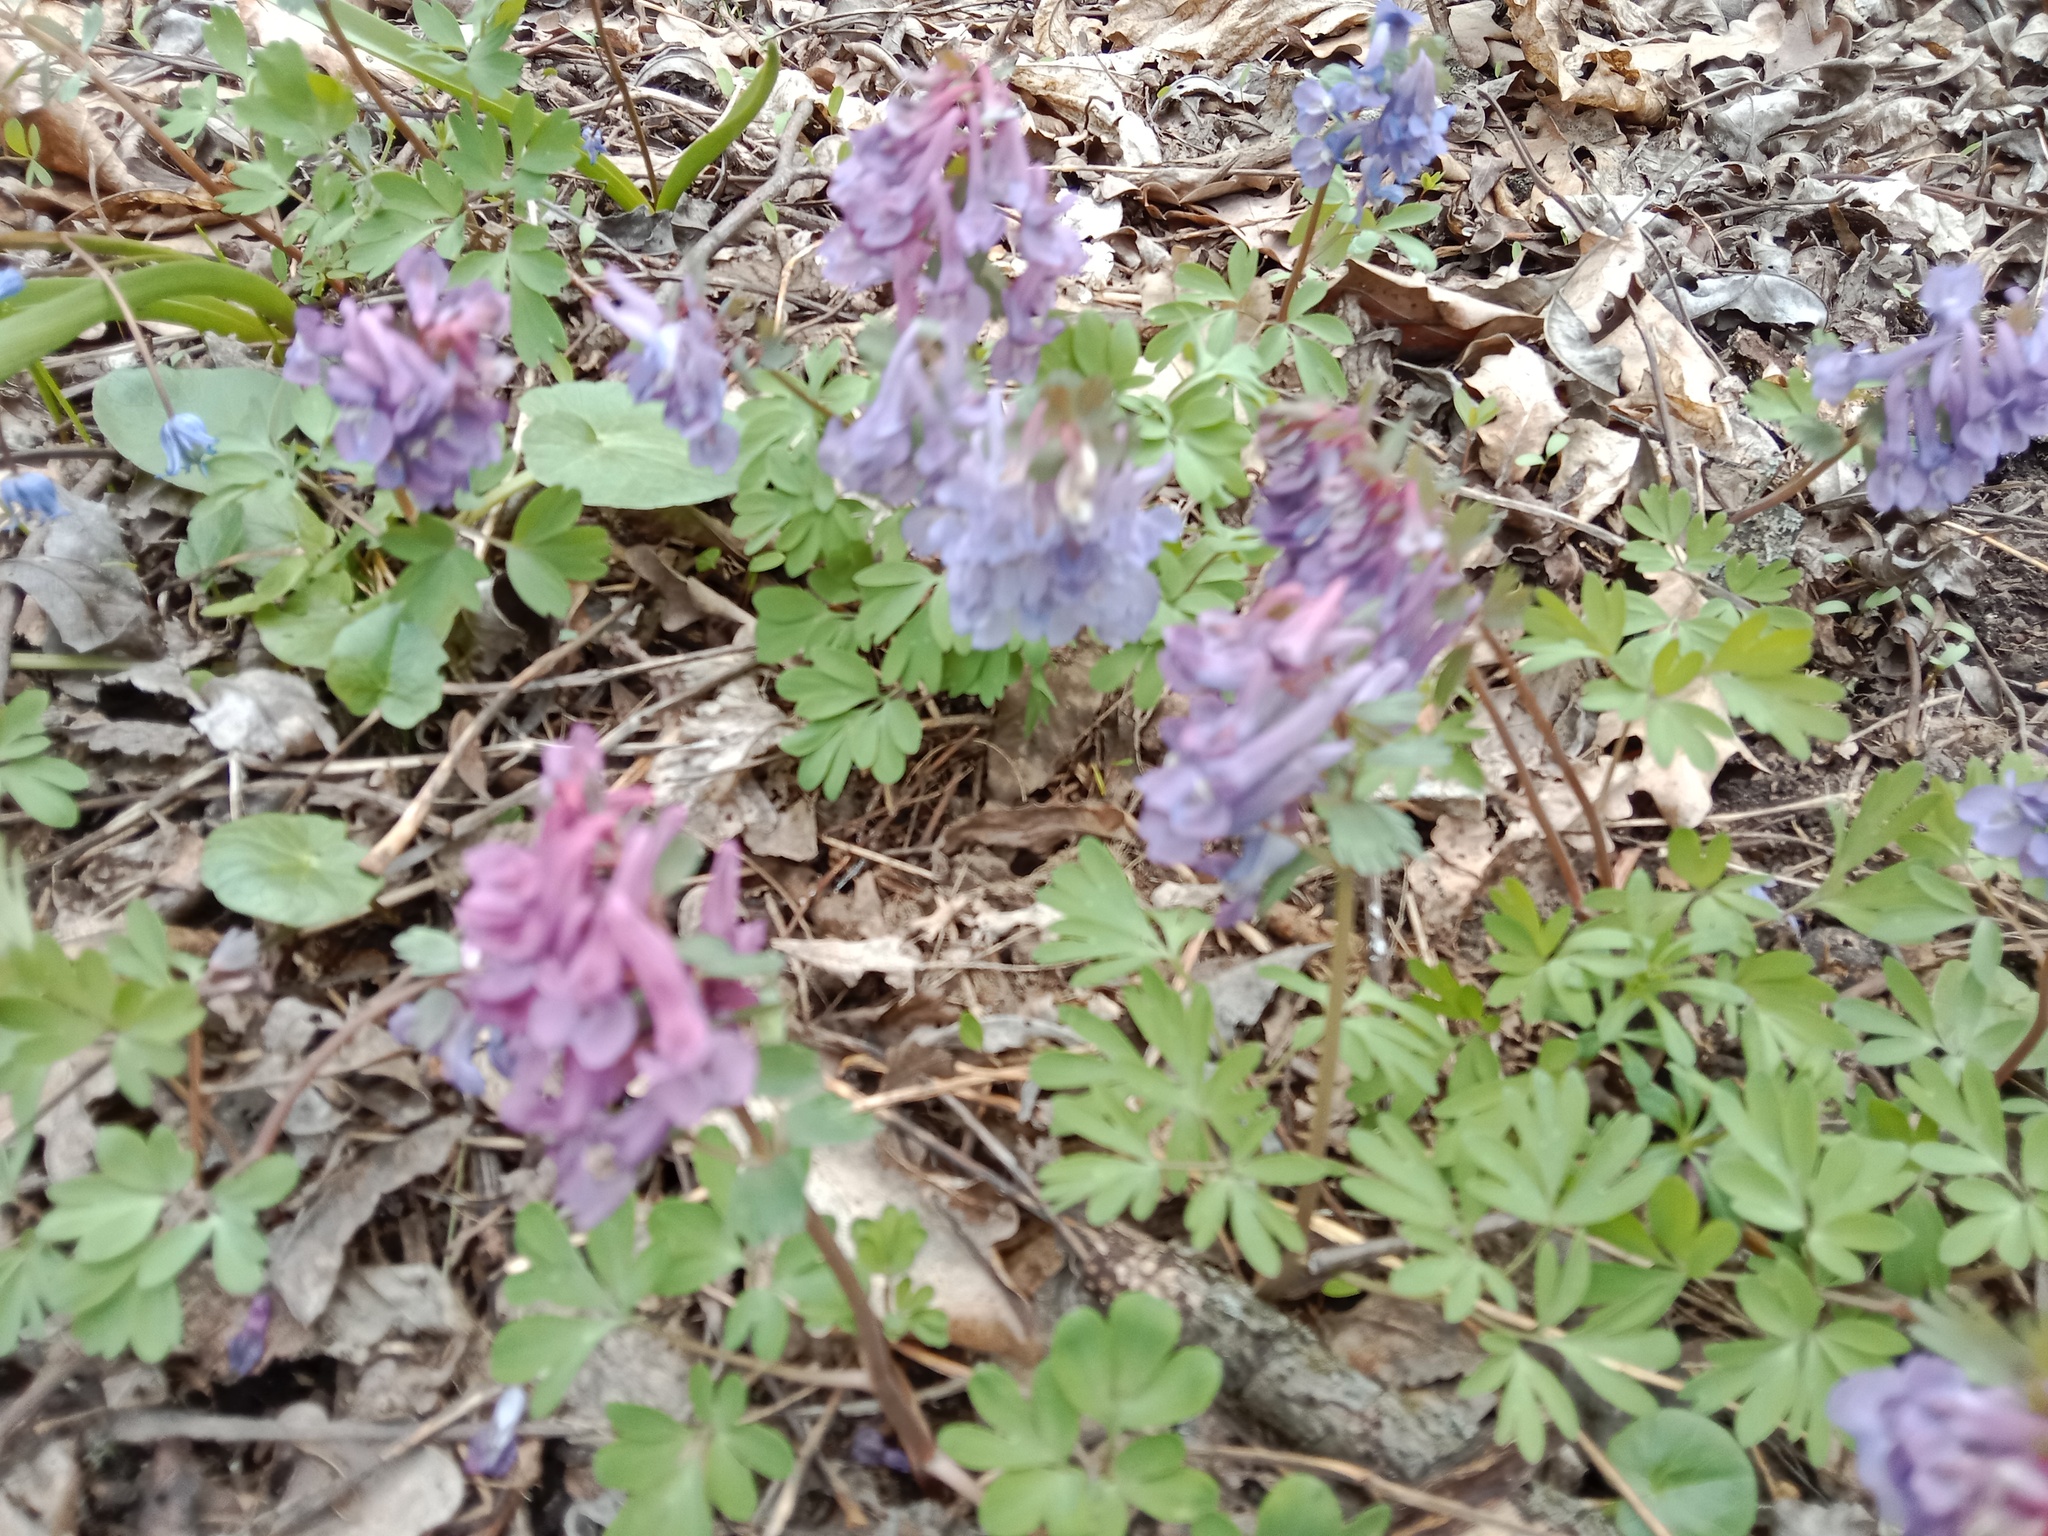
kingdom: Plantae
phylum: Tracheophyta
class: Magnoliopsida
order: Ranunculales
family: Papaveraceae
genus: Corydalis
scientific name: Corydalis solida
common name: Bird-in-a-bush
